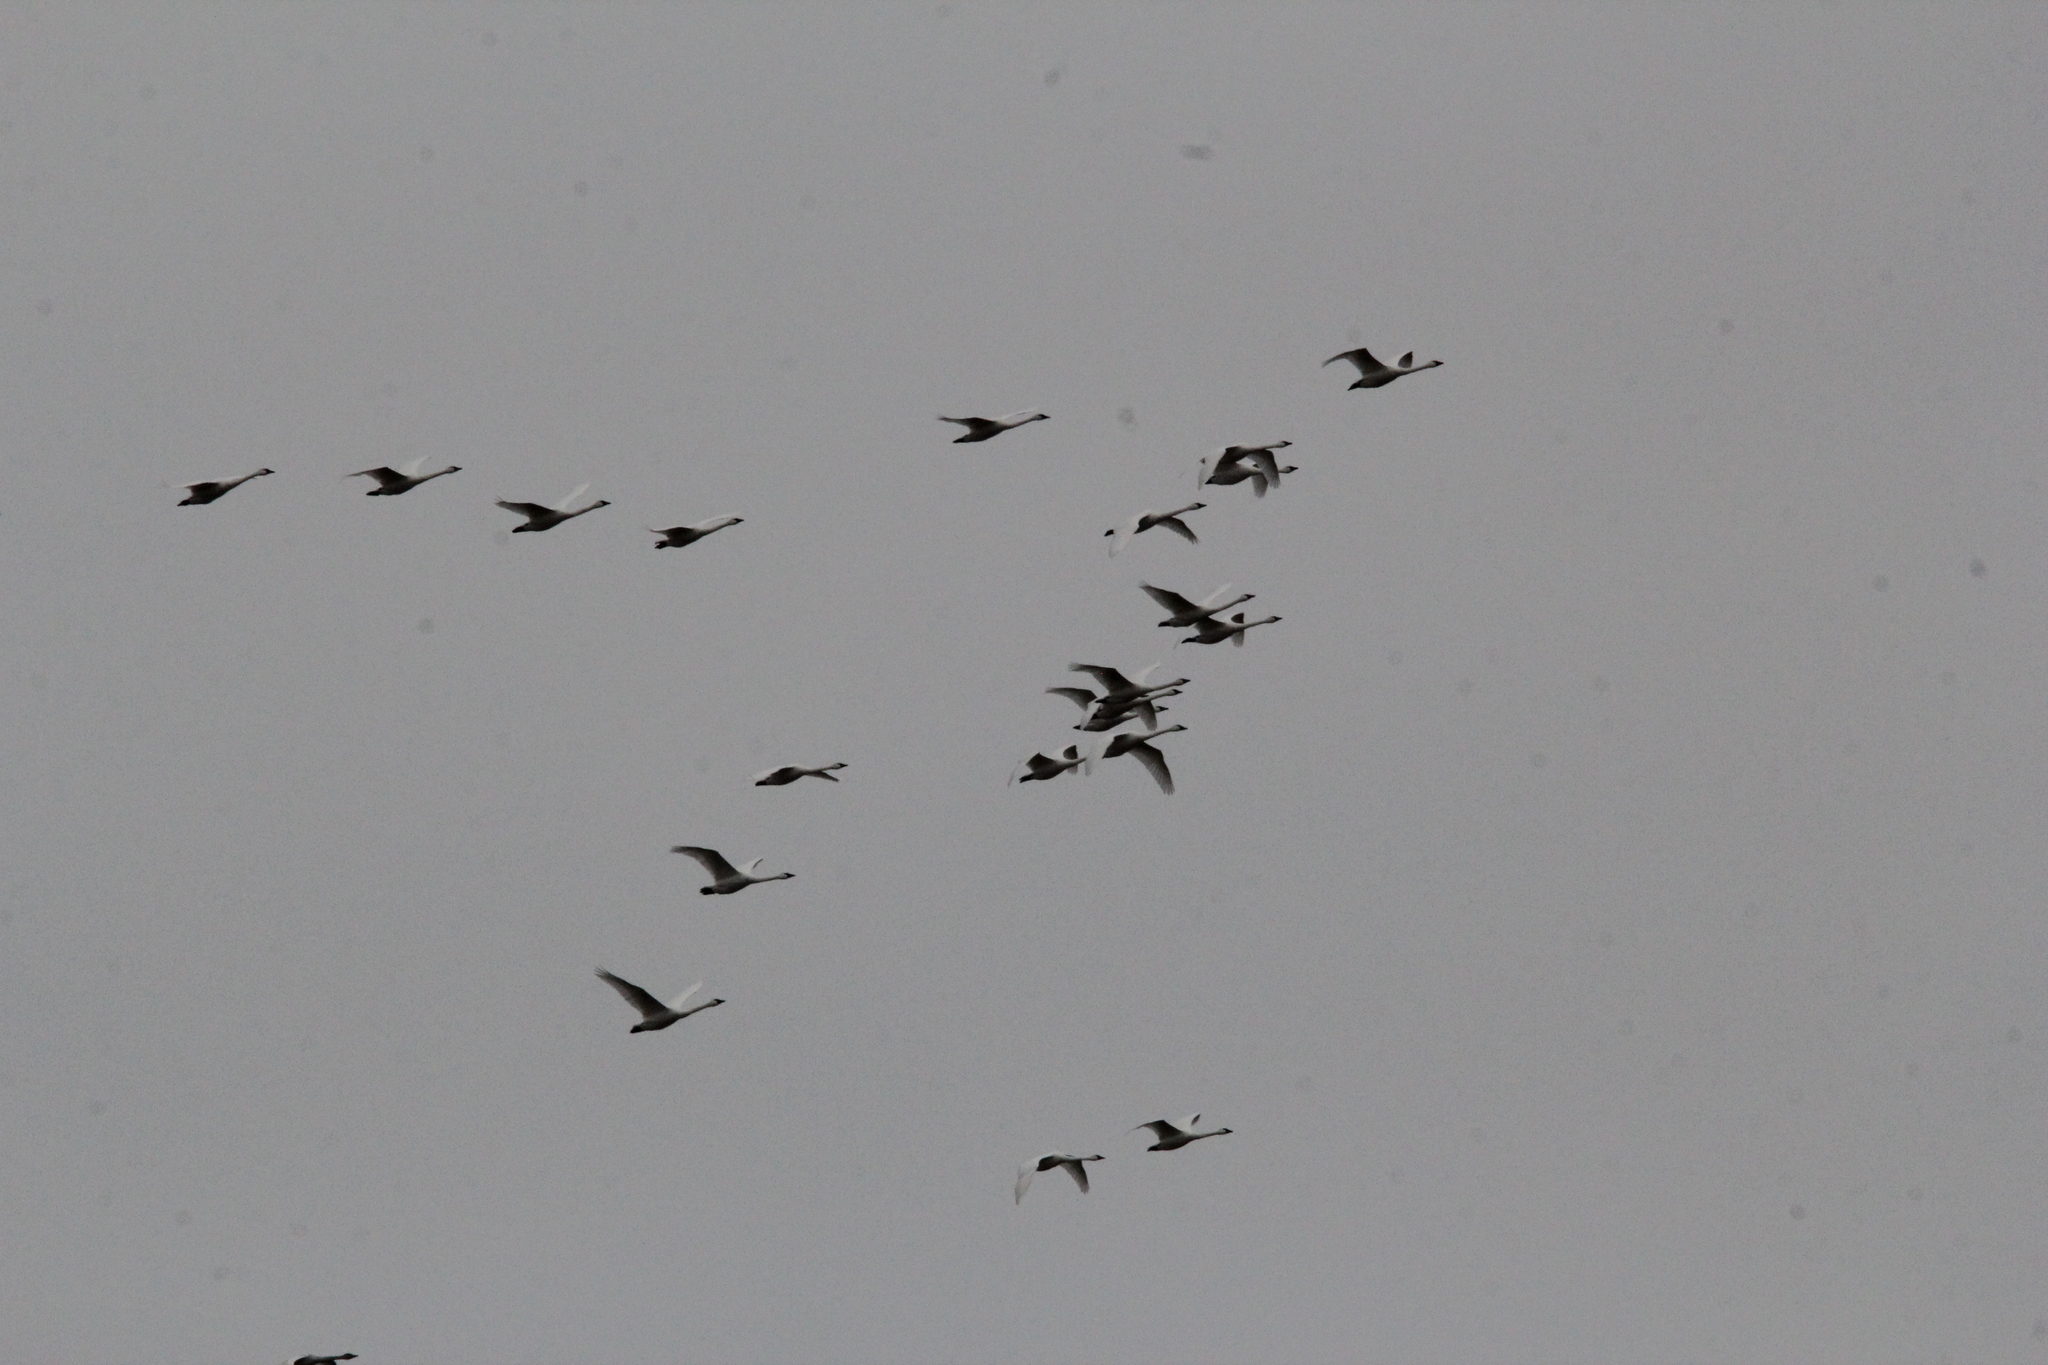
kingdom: Animalia
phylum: Chordata
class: Aves
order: Anseriformes
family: Anatidae
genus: Cygnus
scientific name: Cygnus columbianus
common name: Tundra swan
